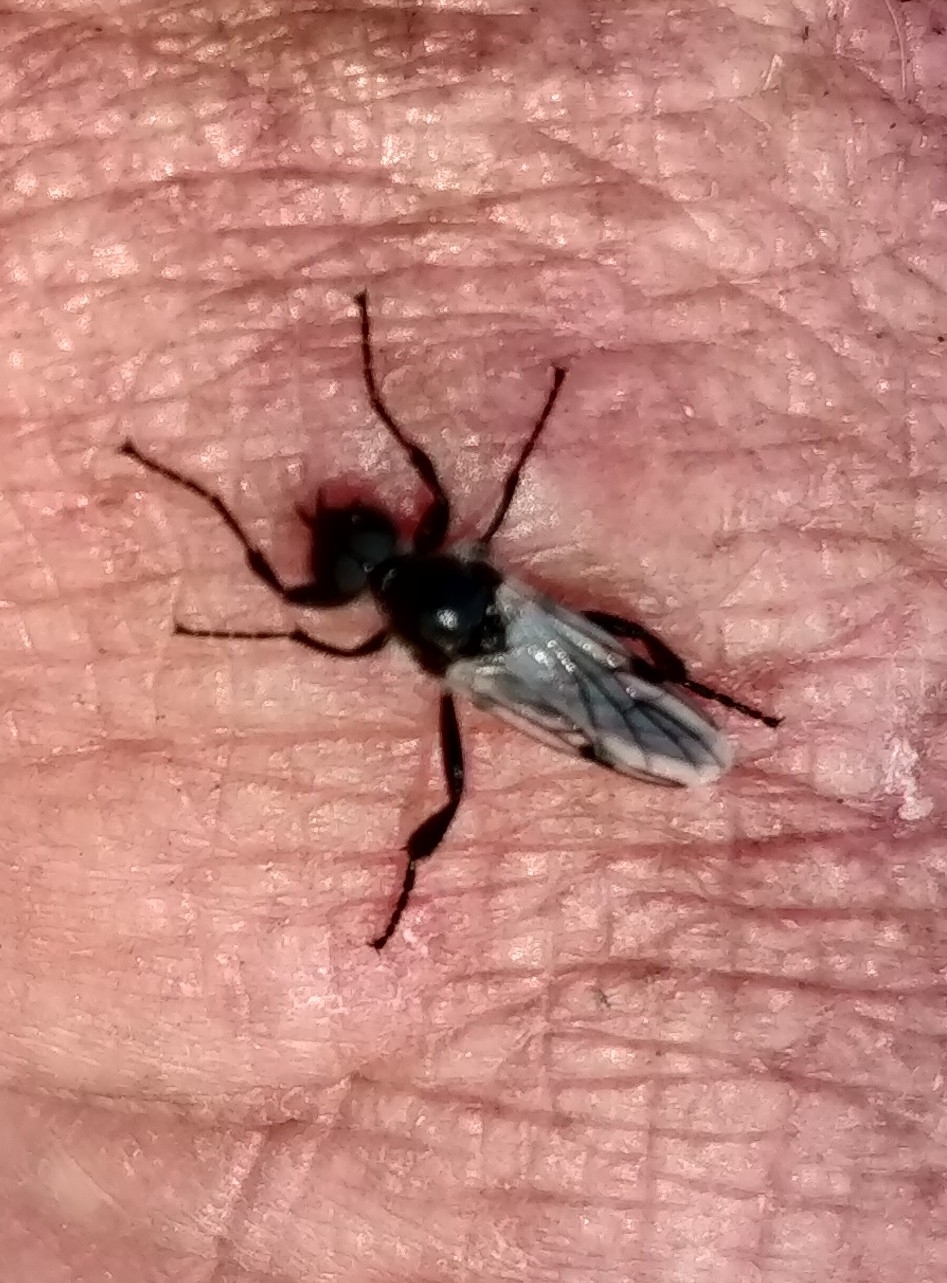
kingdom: Animalia
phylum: Arthropoda
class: Insecta
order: Diptera
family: Bibionidae
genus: Bibio
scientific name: Bibio albipennis
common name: White-winged march fly
